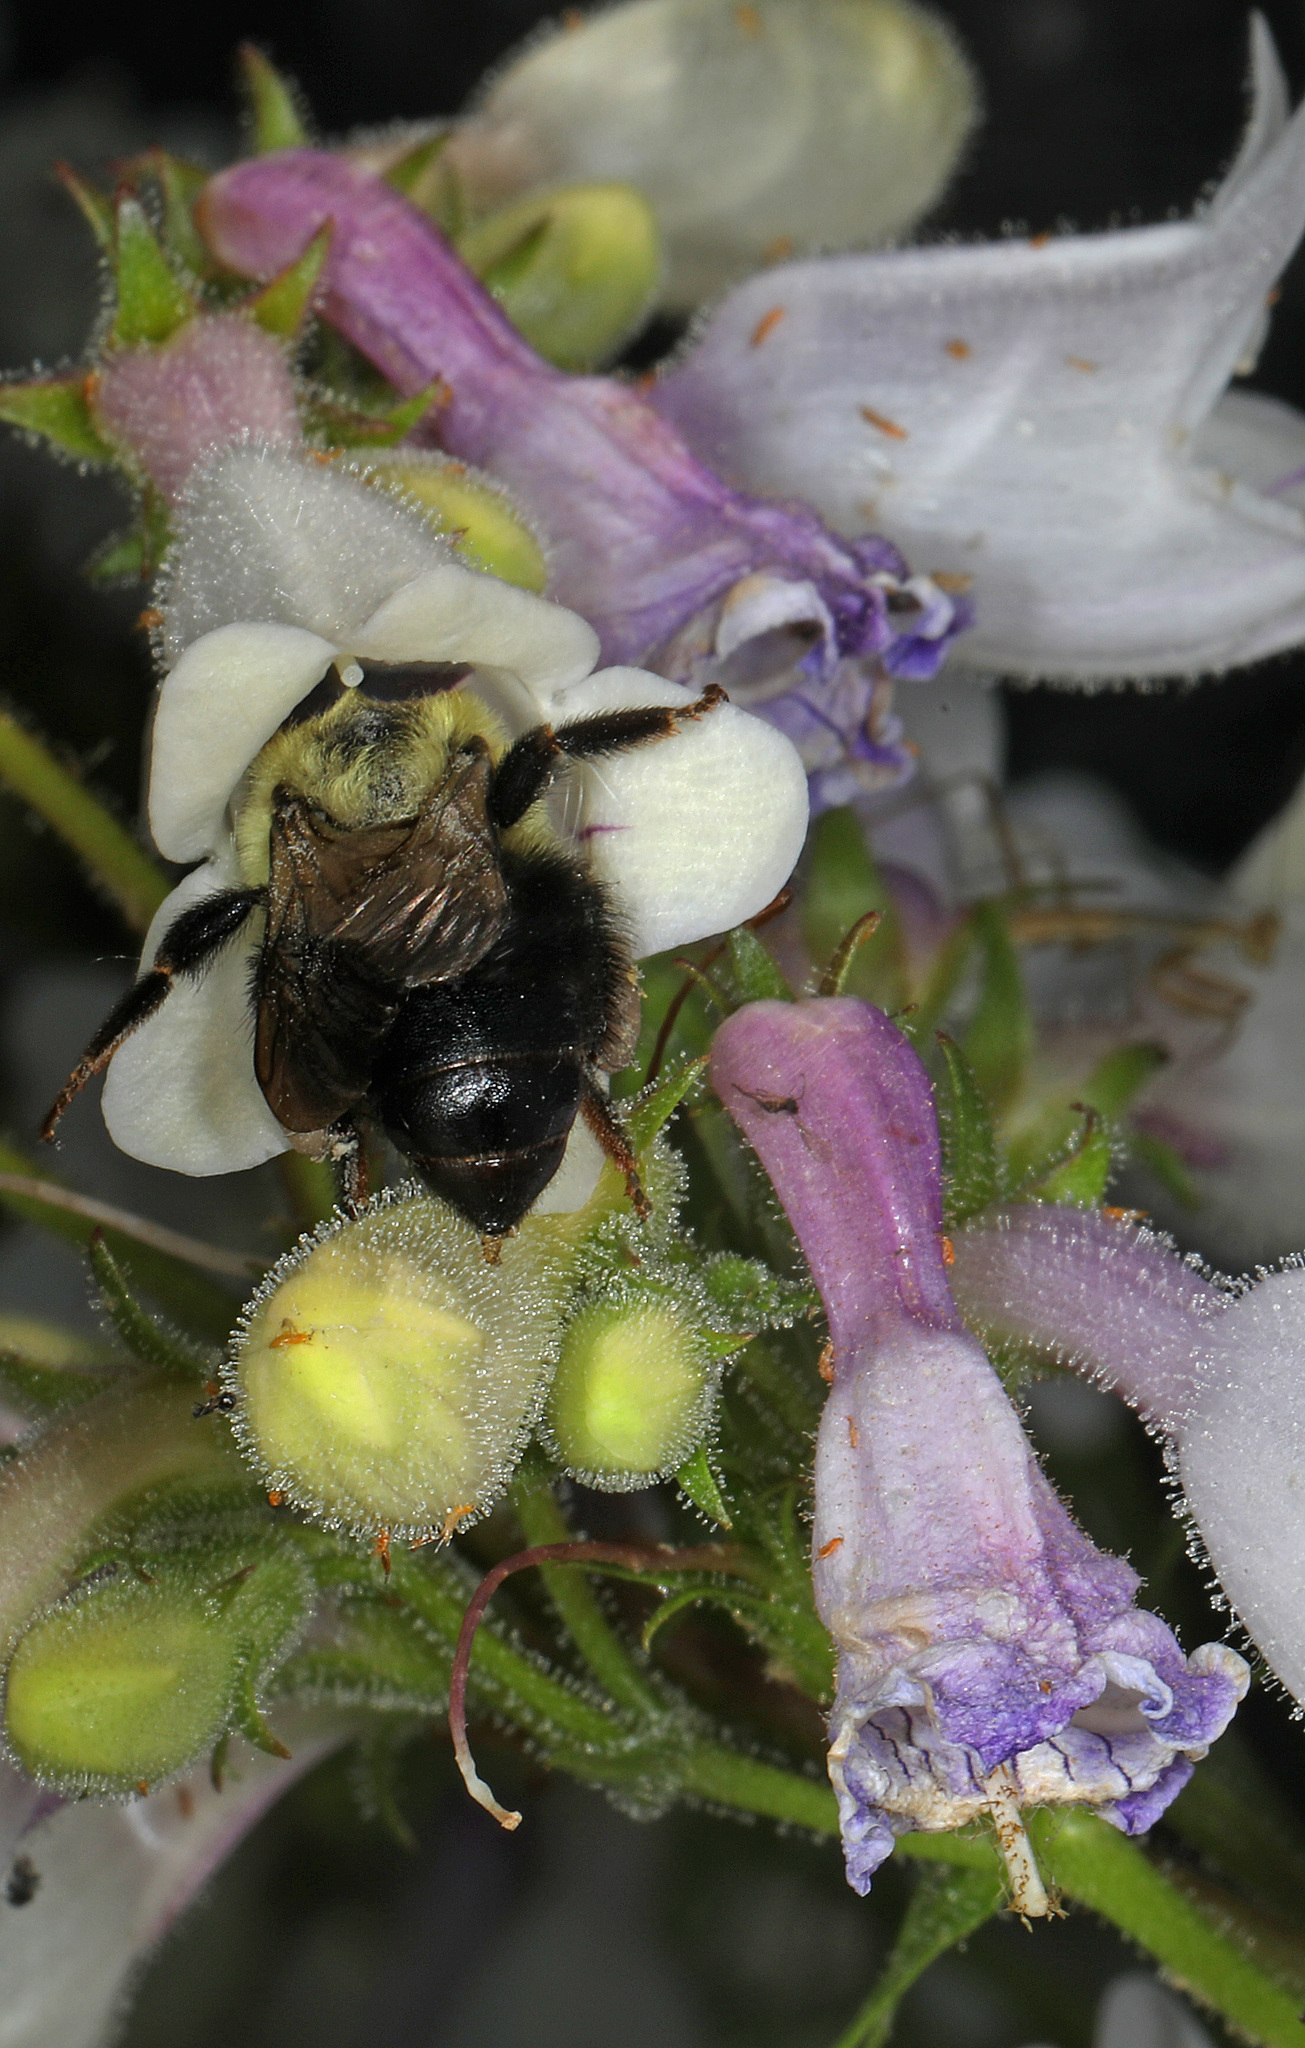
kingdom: Animalia
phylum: Arthropoda
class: Insecta
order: Hymenoptera
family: Apidae
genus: Bombus
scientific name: Bombus bimaculatus
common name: Two-spotted bumble bee
